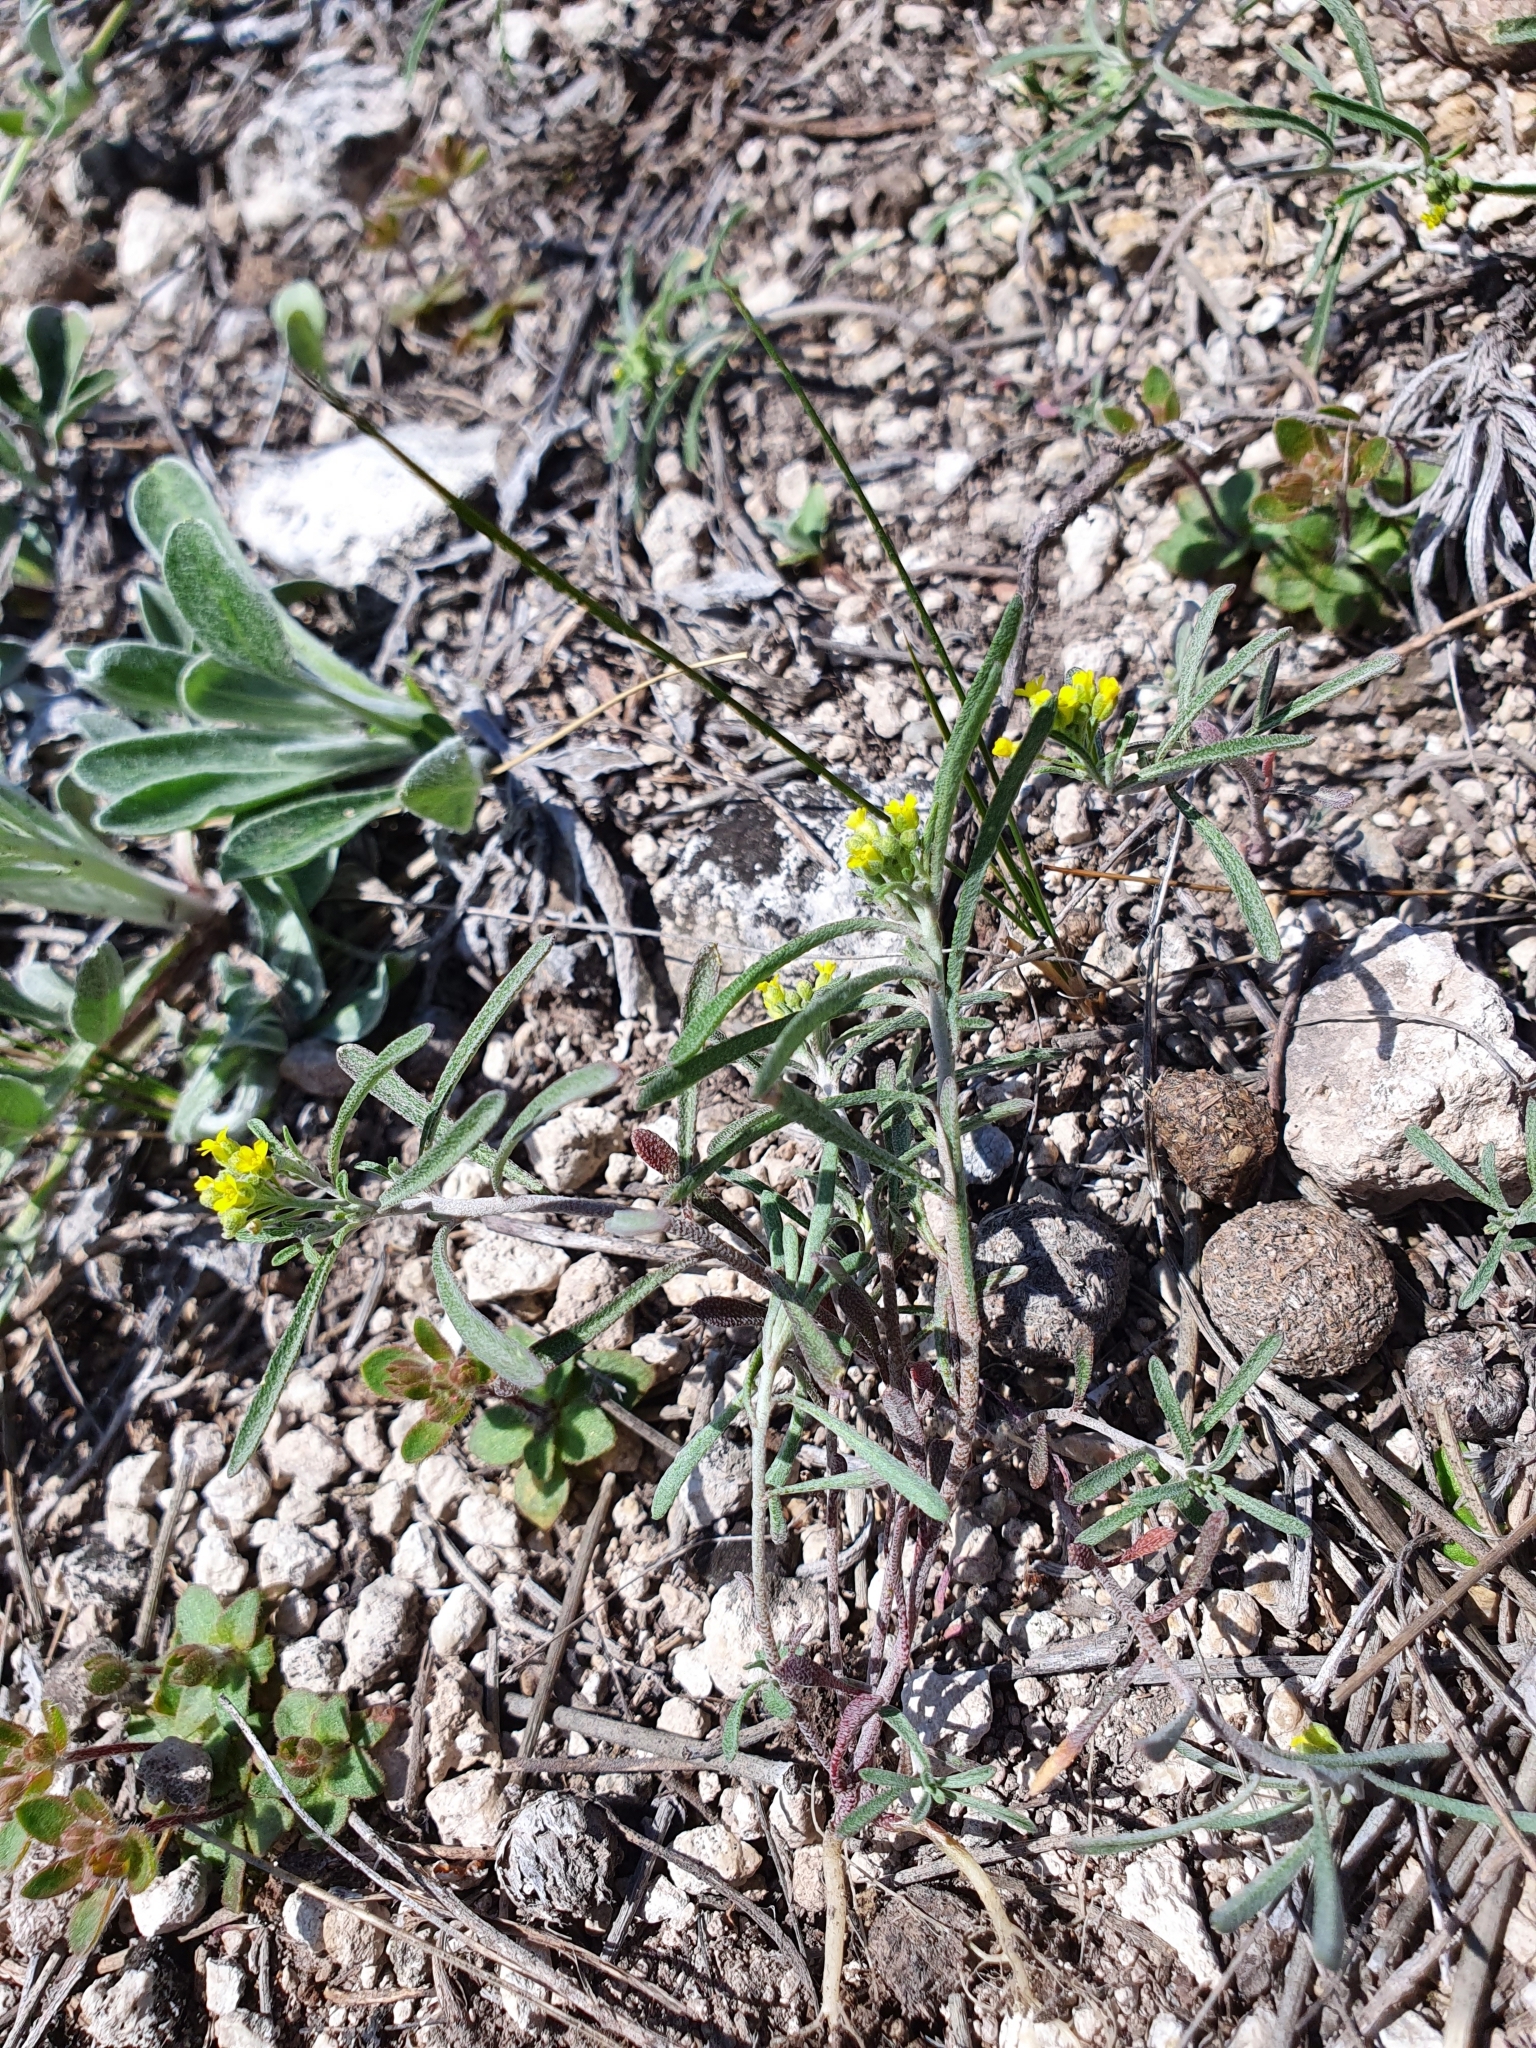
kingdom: Plantae
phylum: Tracheophyta
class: Magnoliopsida
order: Brassicales
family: Brassicaceae
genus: Meniocus
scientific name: Meniocus linifolius
